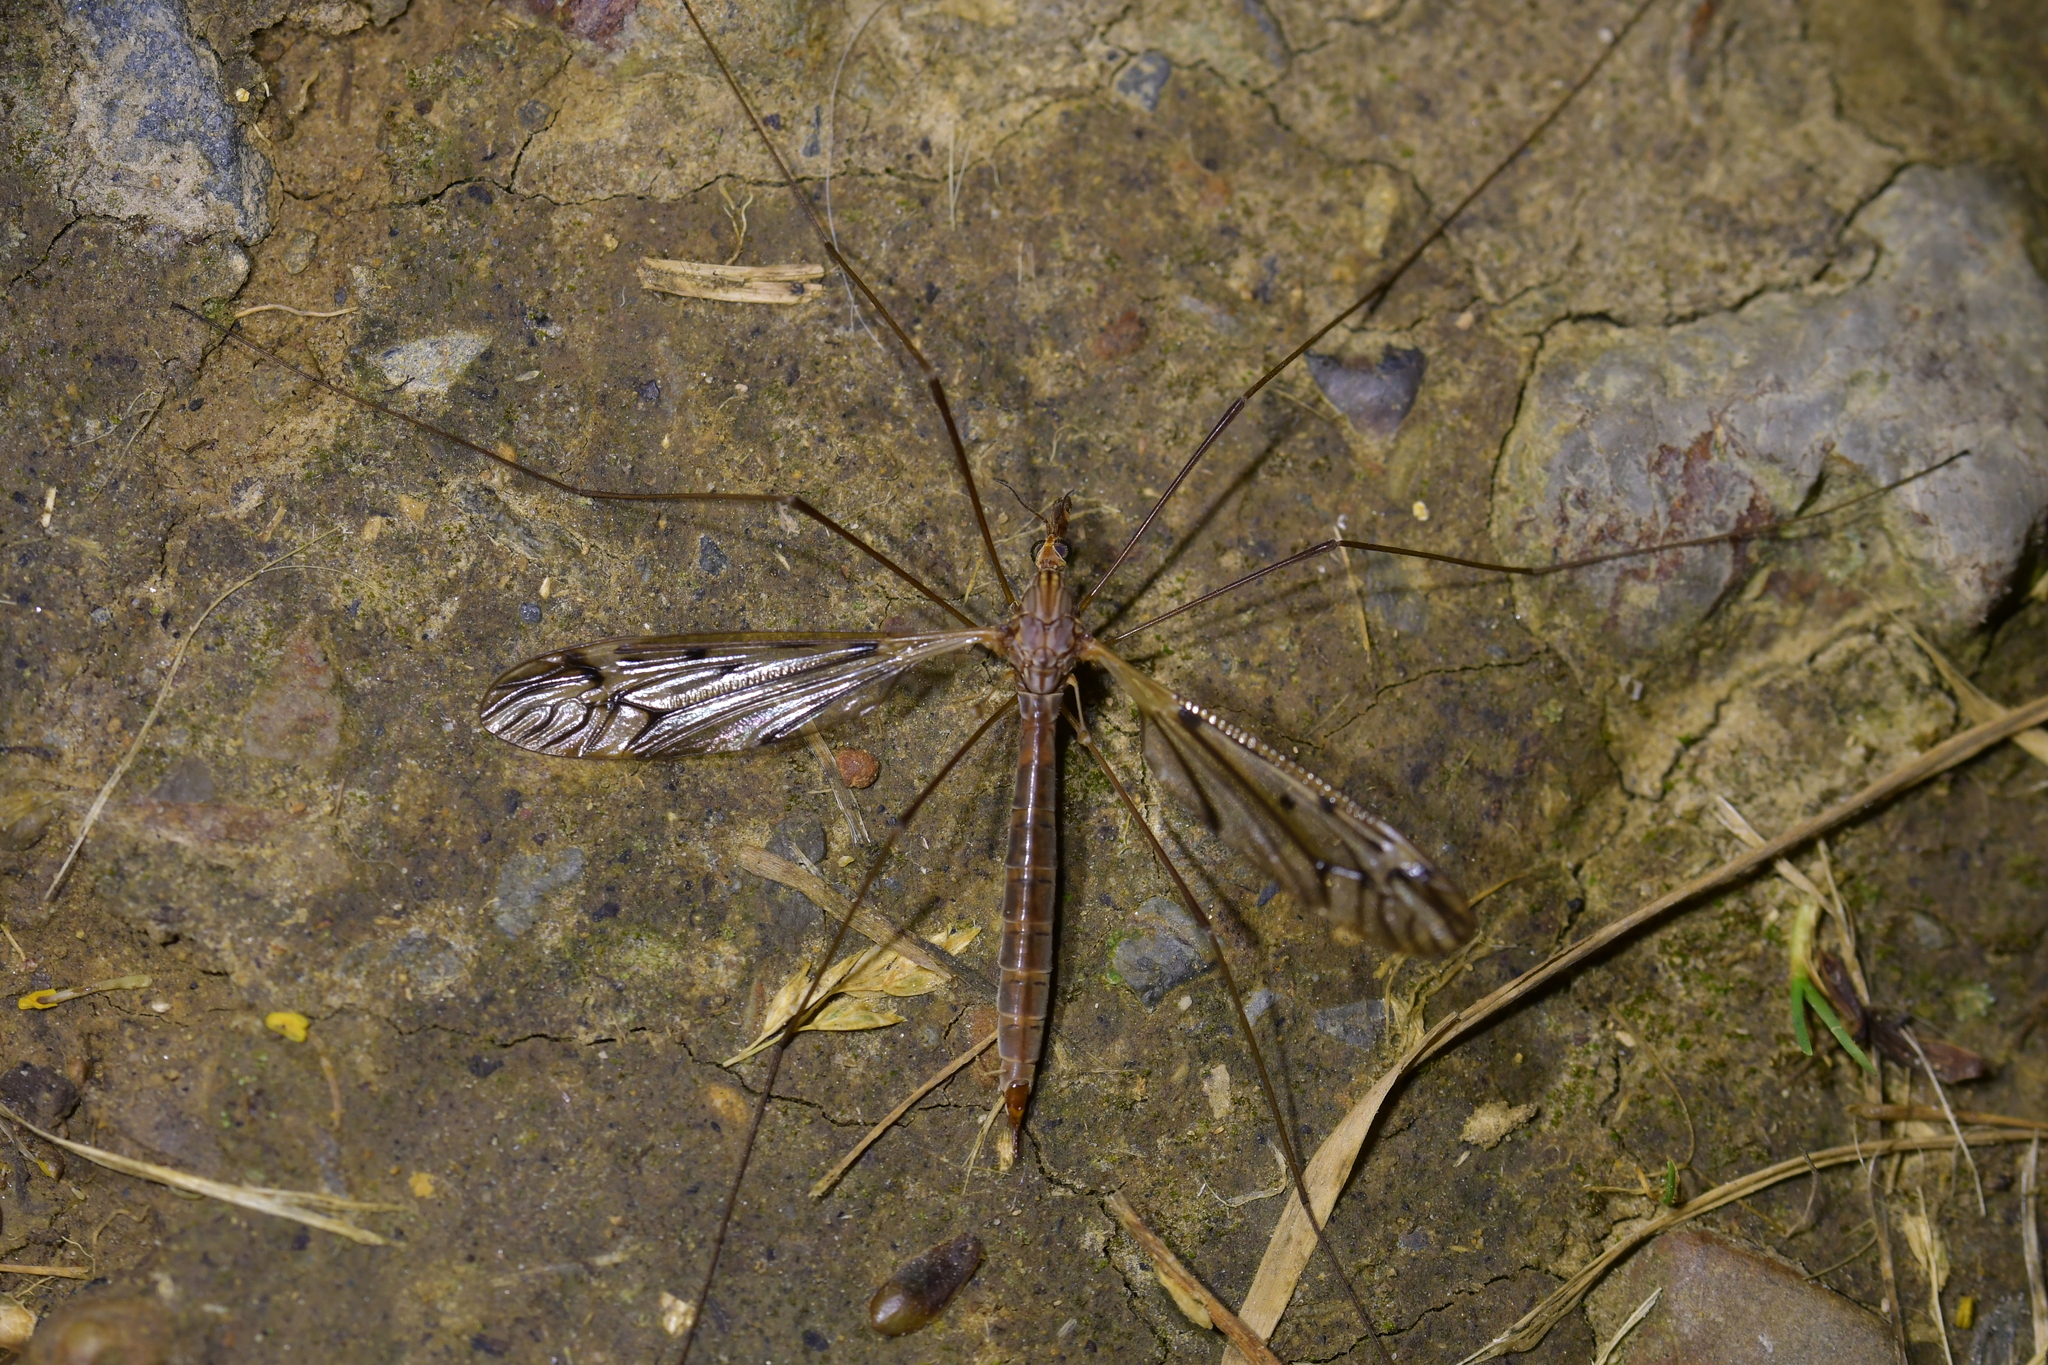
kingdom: Animalia
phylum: Arthropoda
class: Insecta
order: Diptera
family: Tipulidae
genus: Zelandotipula
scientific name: Zelandotipula novarae
